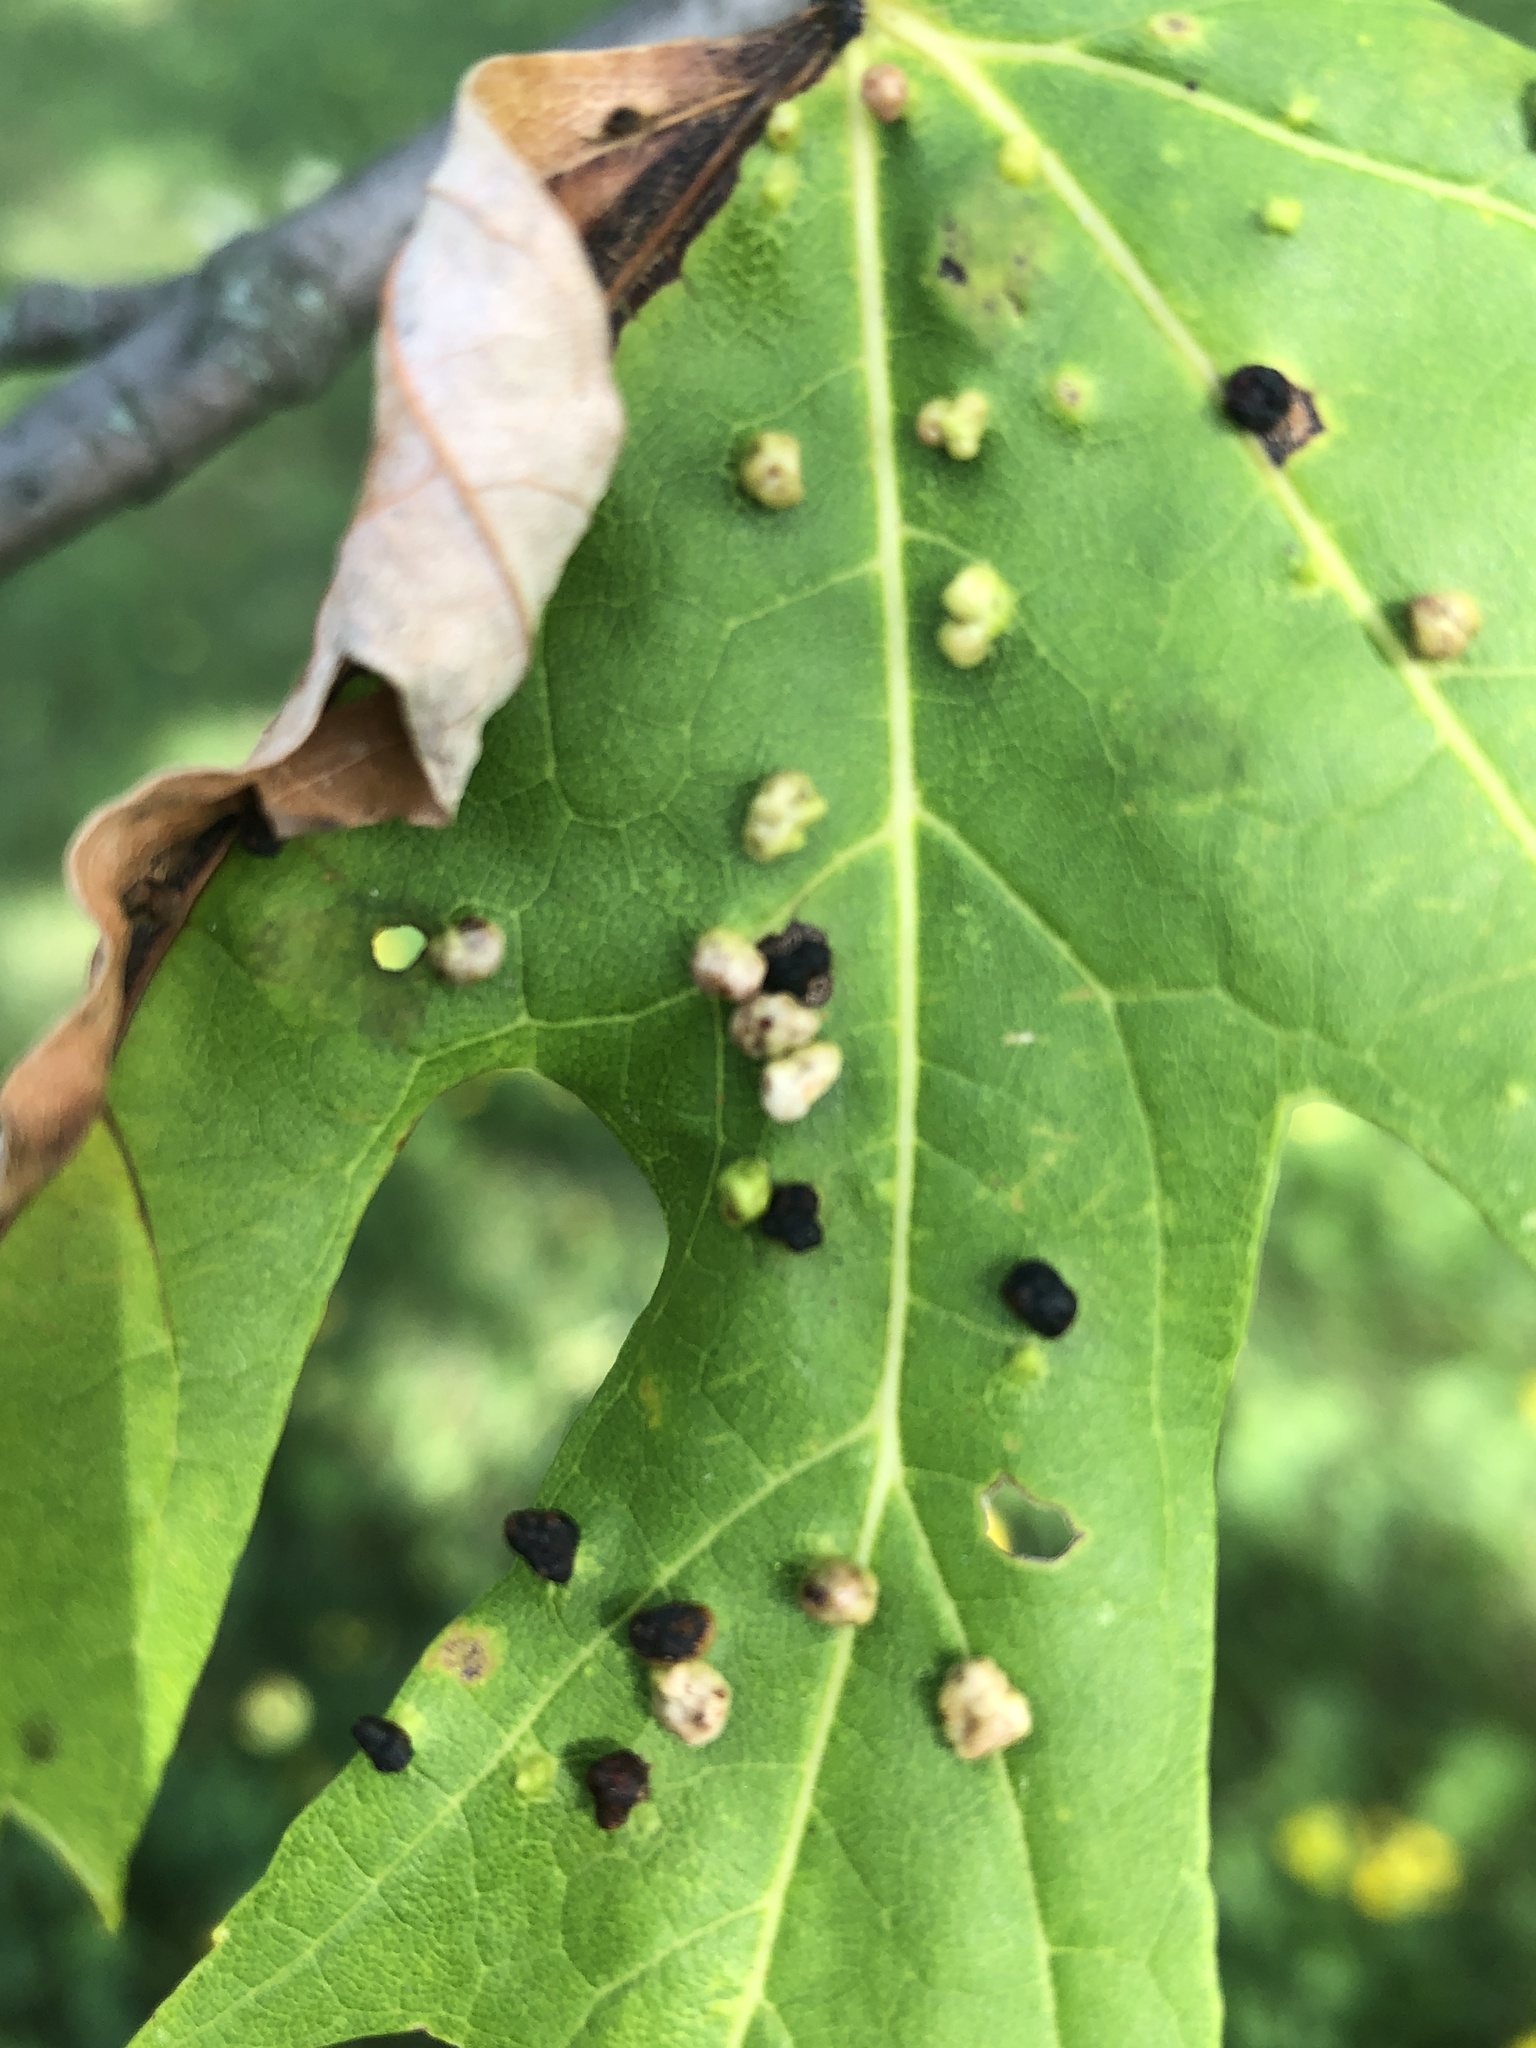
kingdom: Animalia
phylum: Arthropoda
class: Arachnida
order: Trombidiformes
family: Eriophyidae
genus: Vasates
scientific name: Vasates quadripedes
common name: Maple bladder gall mite
